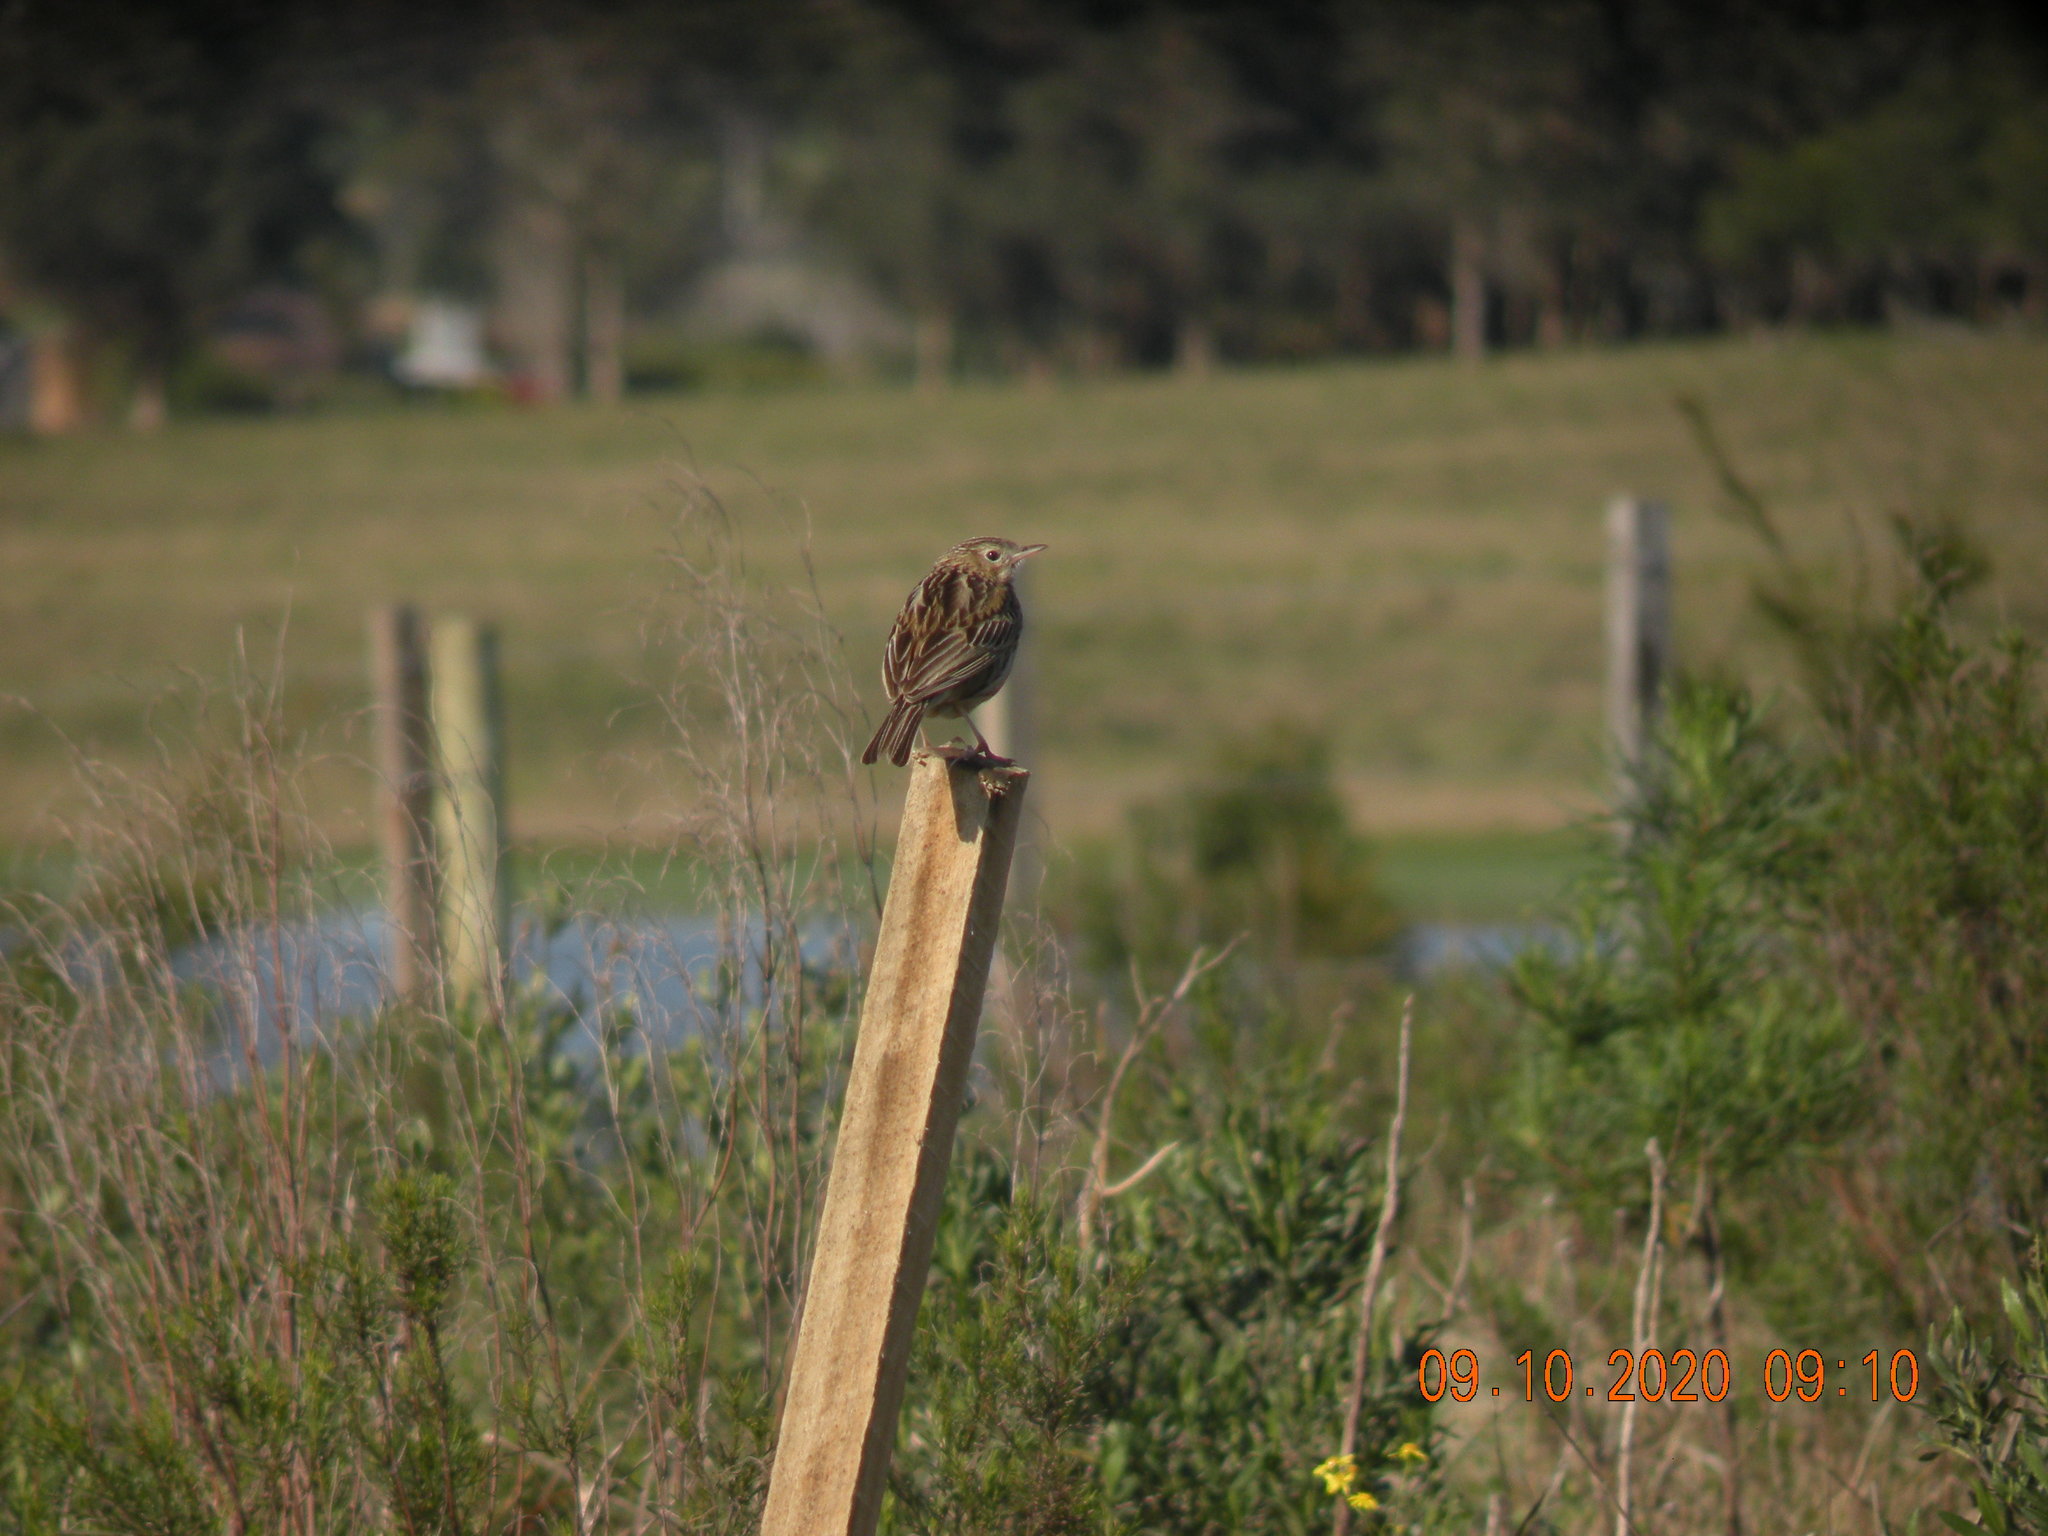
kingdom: Animalia
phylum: Chordata
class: Aves
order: Passeriformes
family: Motacillidae
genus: Anthus
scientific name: Anthus chii
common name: Yellowish pipit
